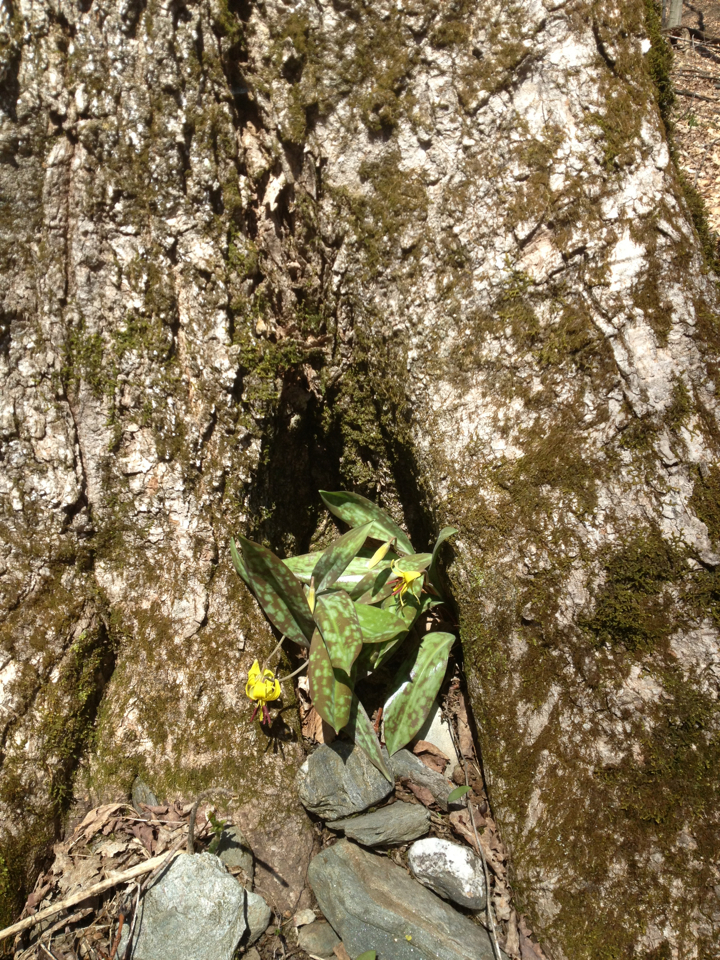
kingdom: Plantae
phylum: Tracheophyta
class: Liliopsida
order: Liliales
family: Liliaceae
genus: Erythronium
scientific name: Erythronium americanum
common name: Yellow adder's-tongue
